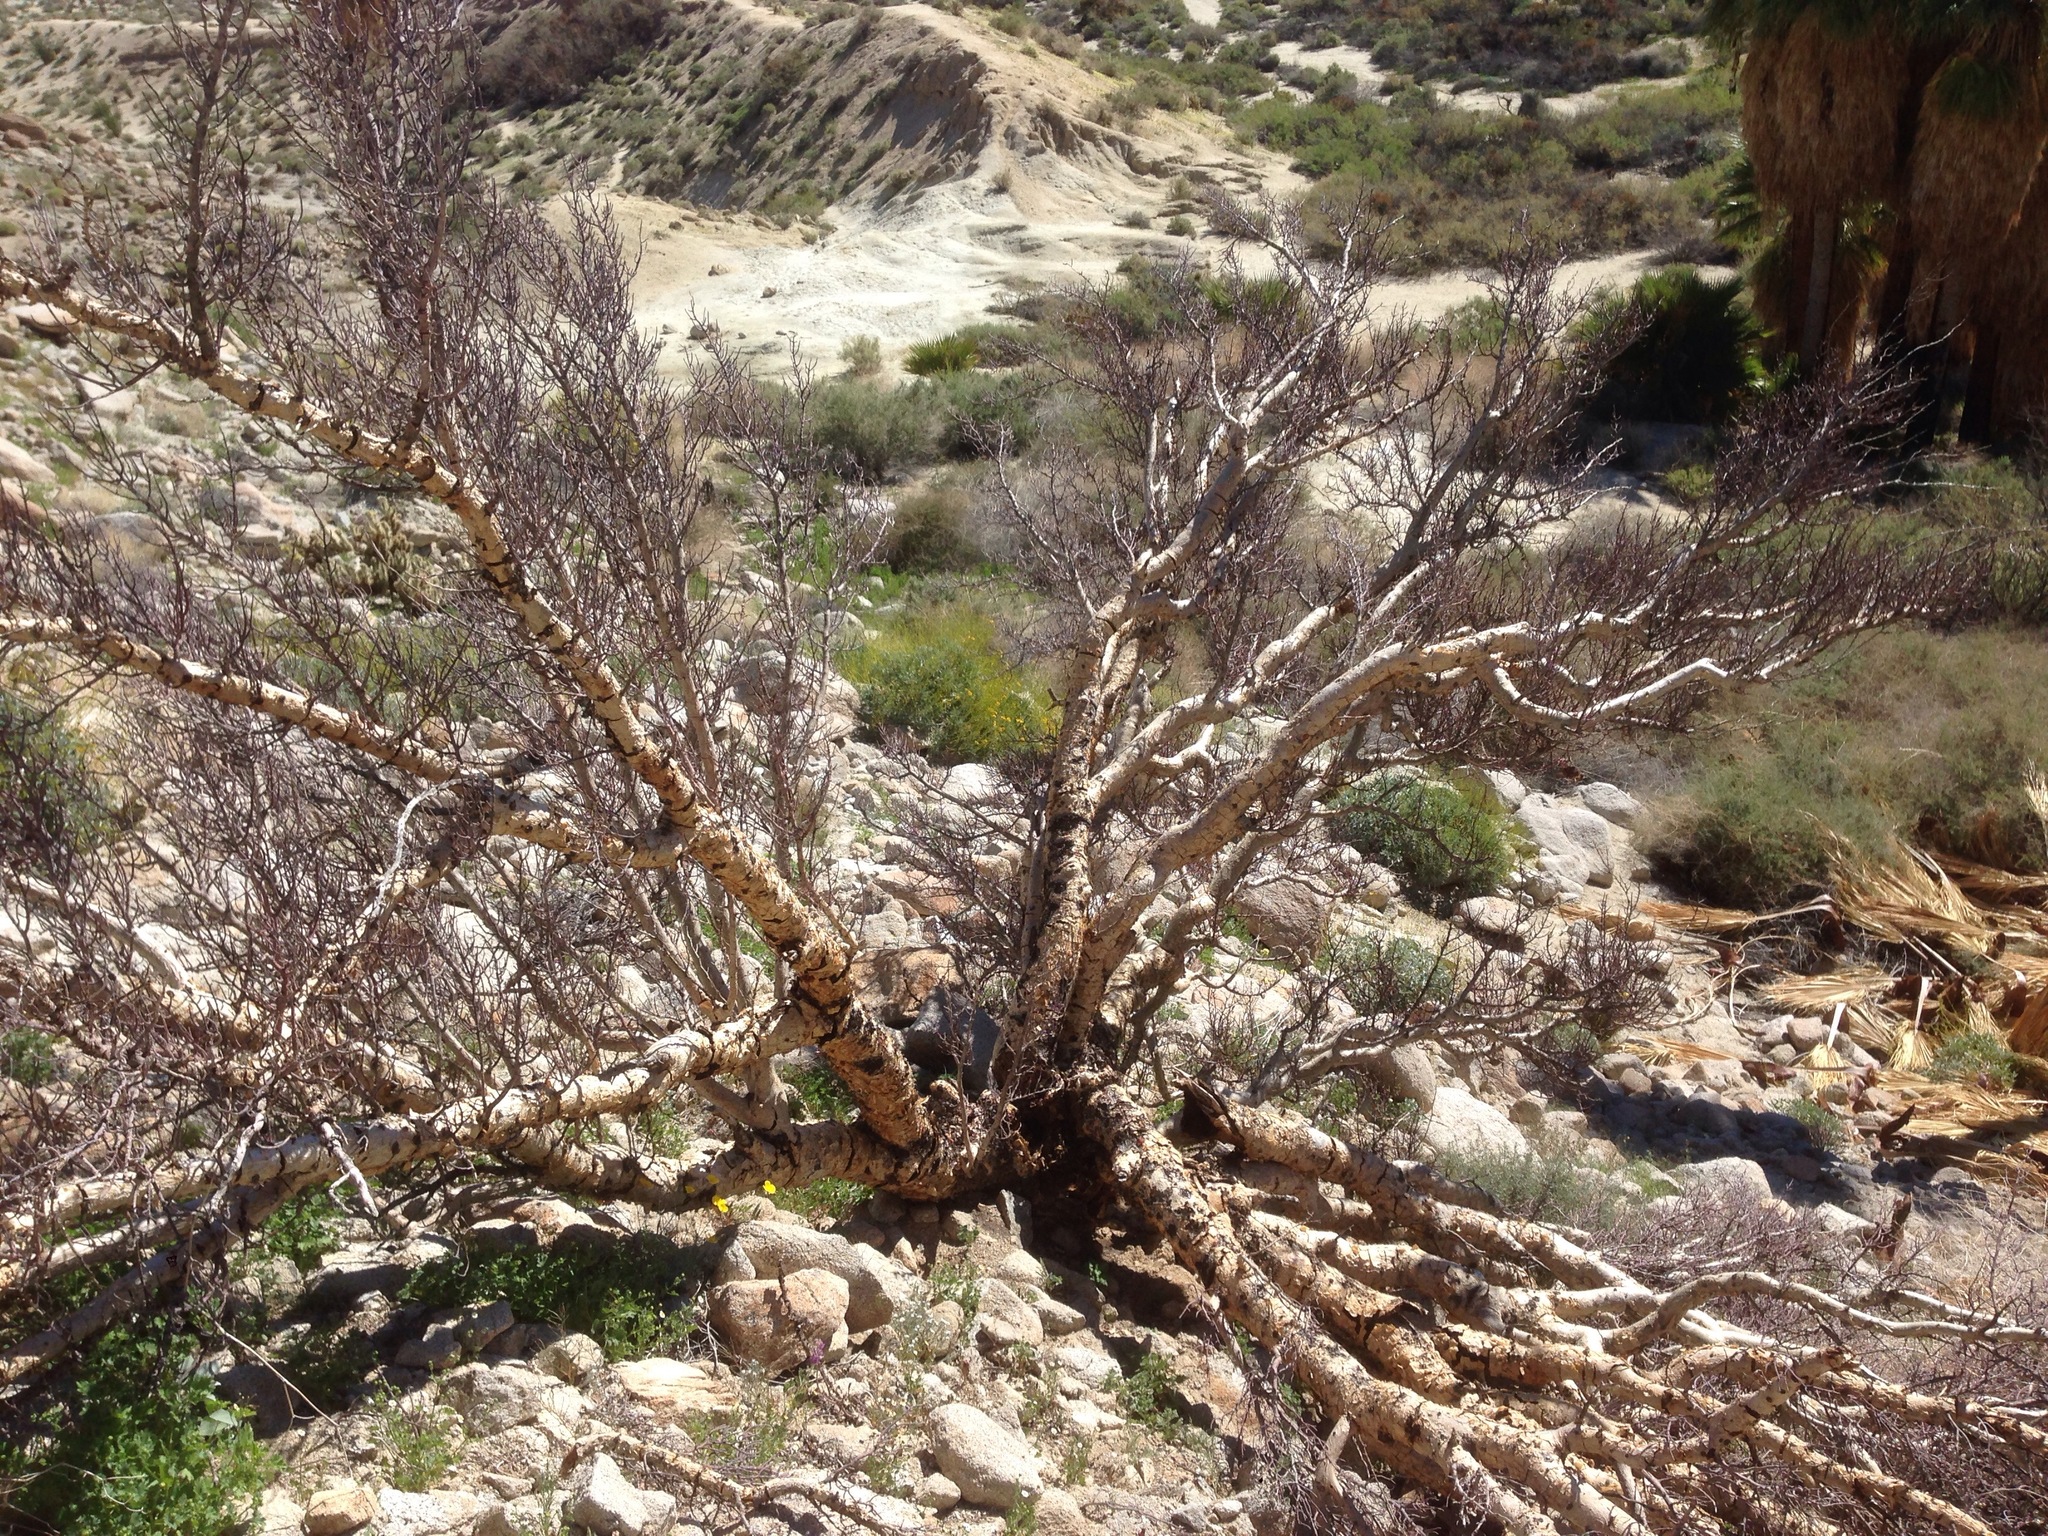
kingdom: Plantae
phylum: Tracheophyta
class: Magnoliopsida
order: Sapindales
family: Burseraceae
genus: Bursera
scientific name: Bursera microphylla
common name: Elephant tree
